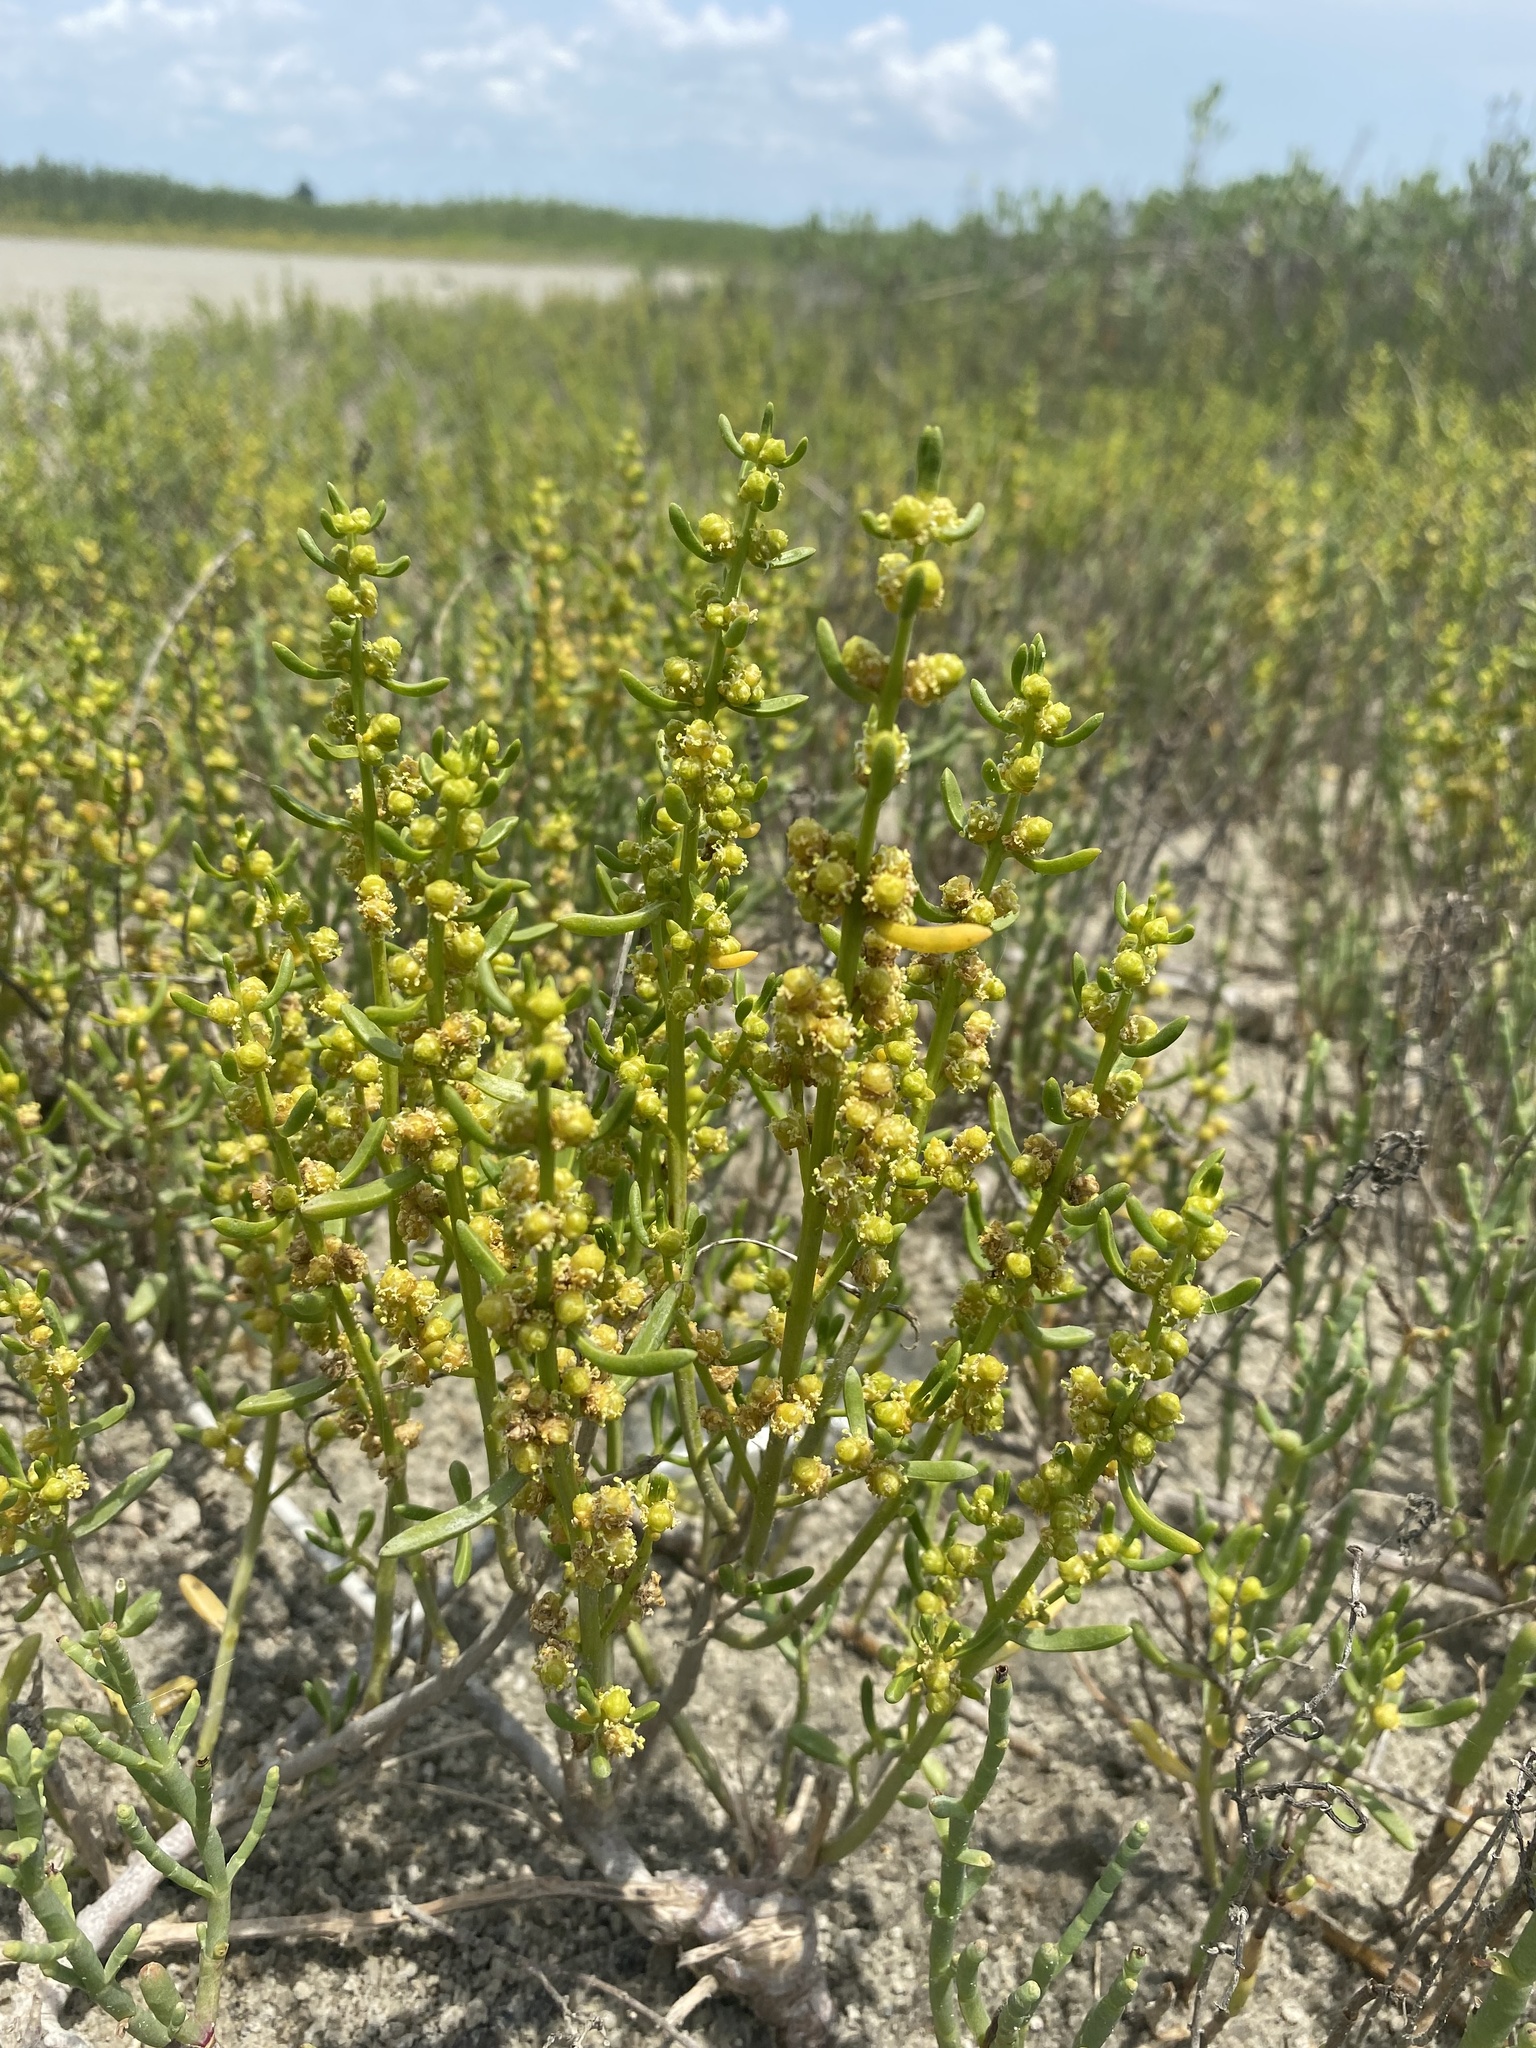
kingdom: Plantae
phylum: Tracheophyta
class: Magnoliopsida
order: Brassicales
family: Bataceae
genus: Batis
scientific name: Batis maritima
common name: Turtleweed
